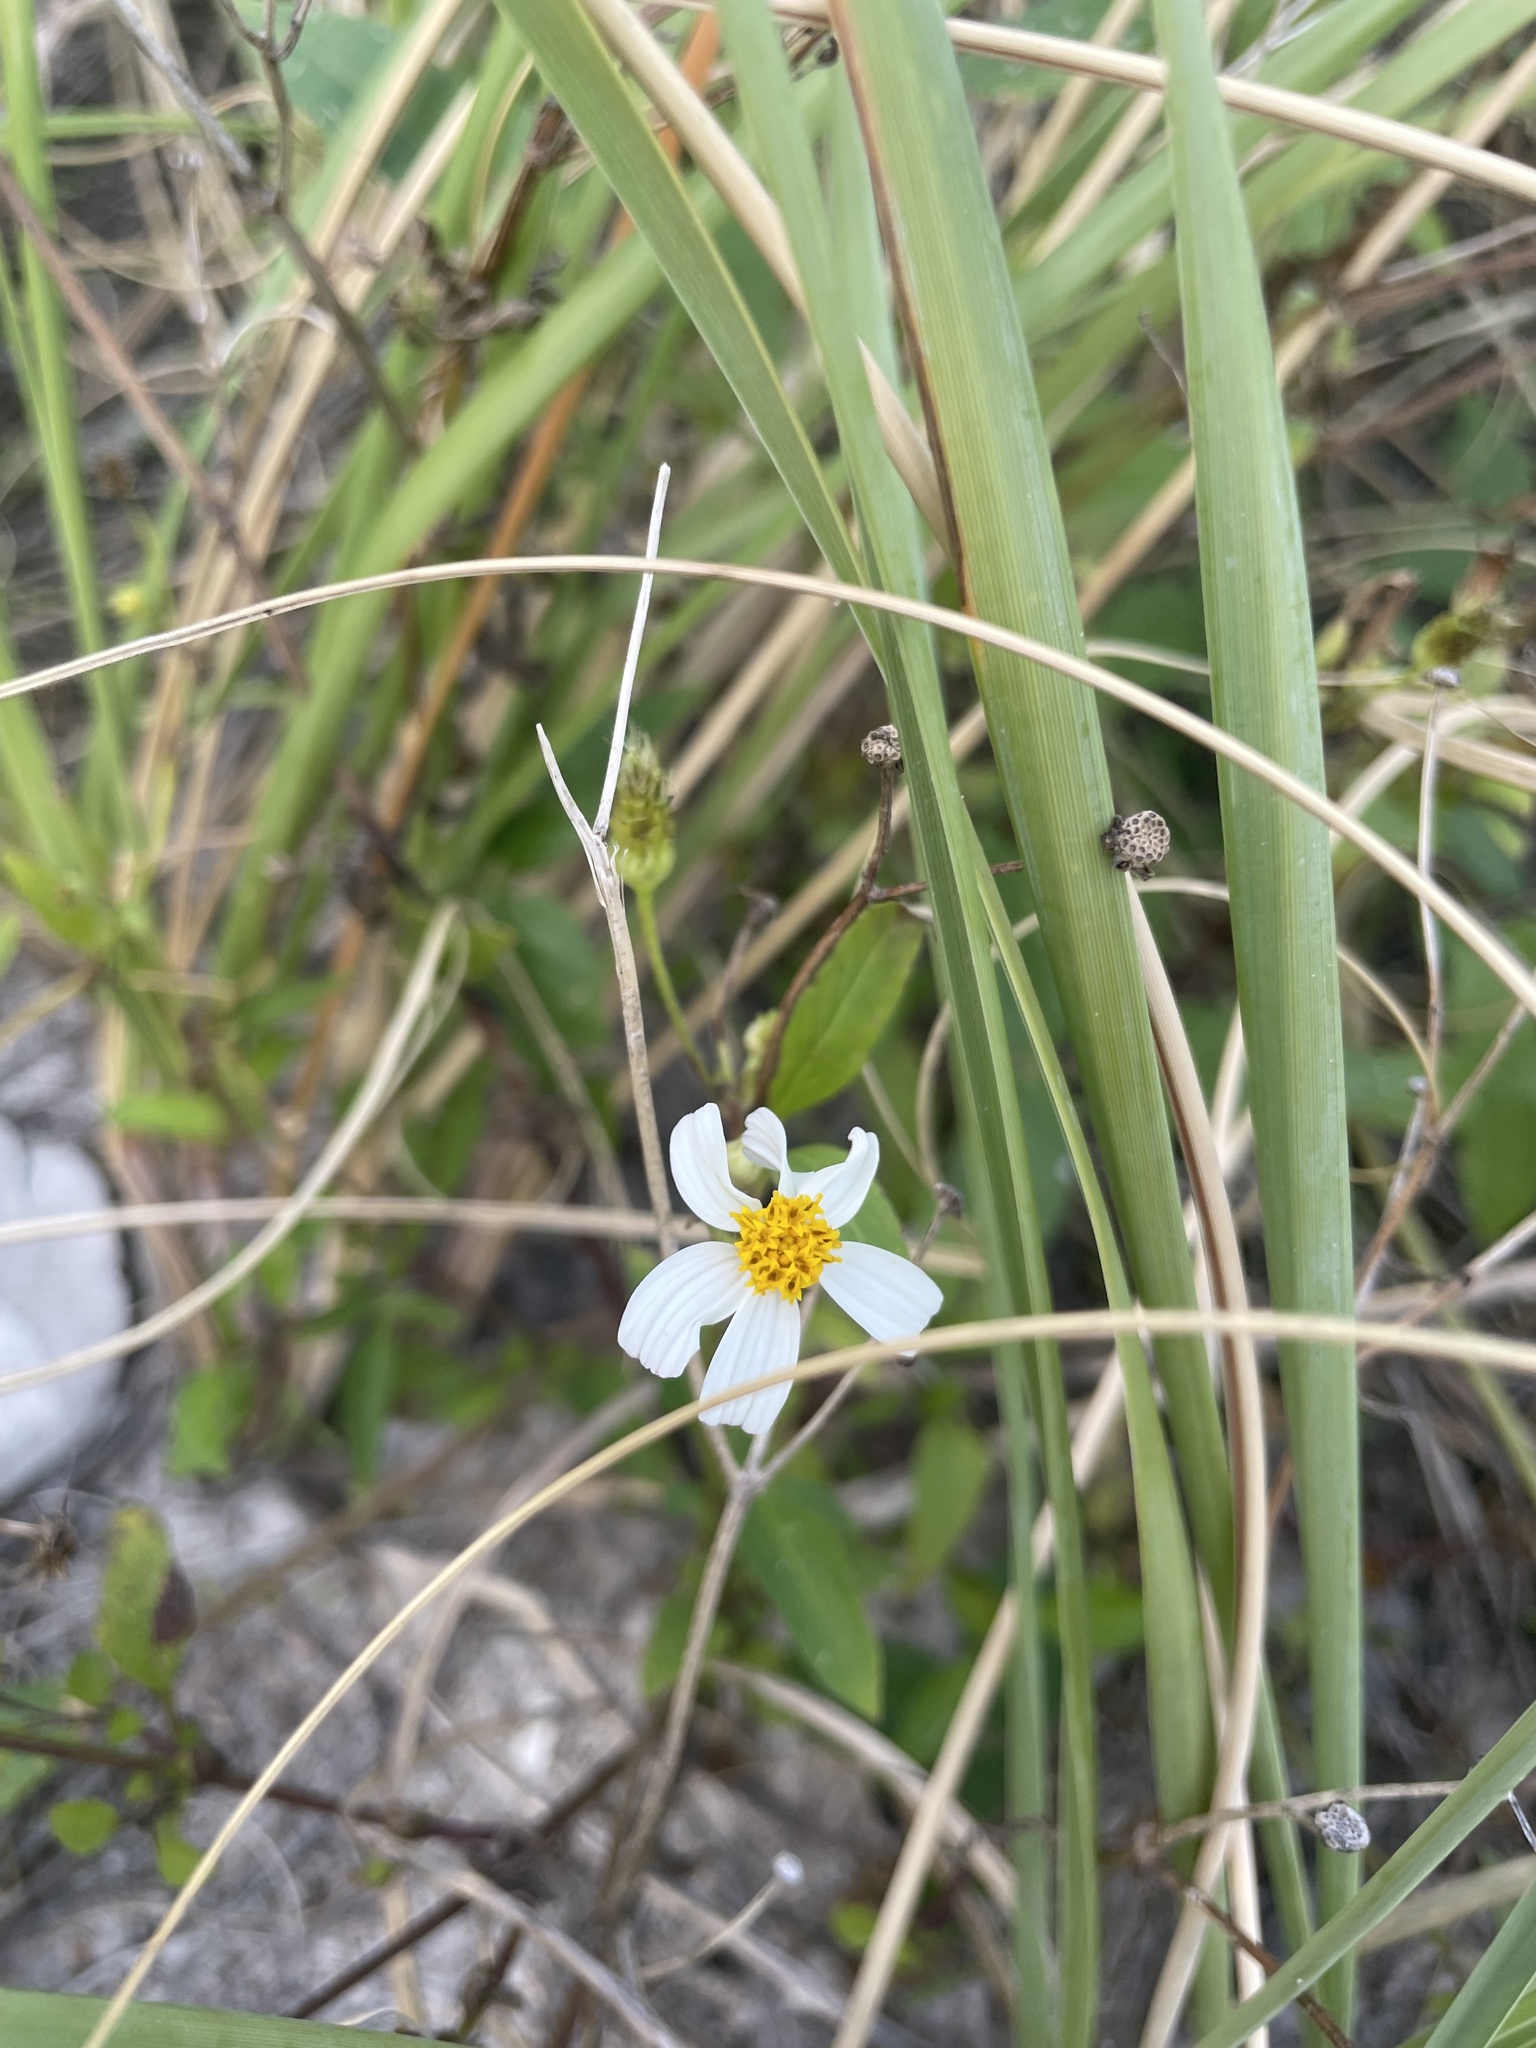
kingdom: Plantae
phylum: Tracheophyta
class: Magnoliopsida
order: Asterales
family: Asteraceae
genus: Bidens
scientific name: Bidens alba
